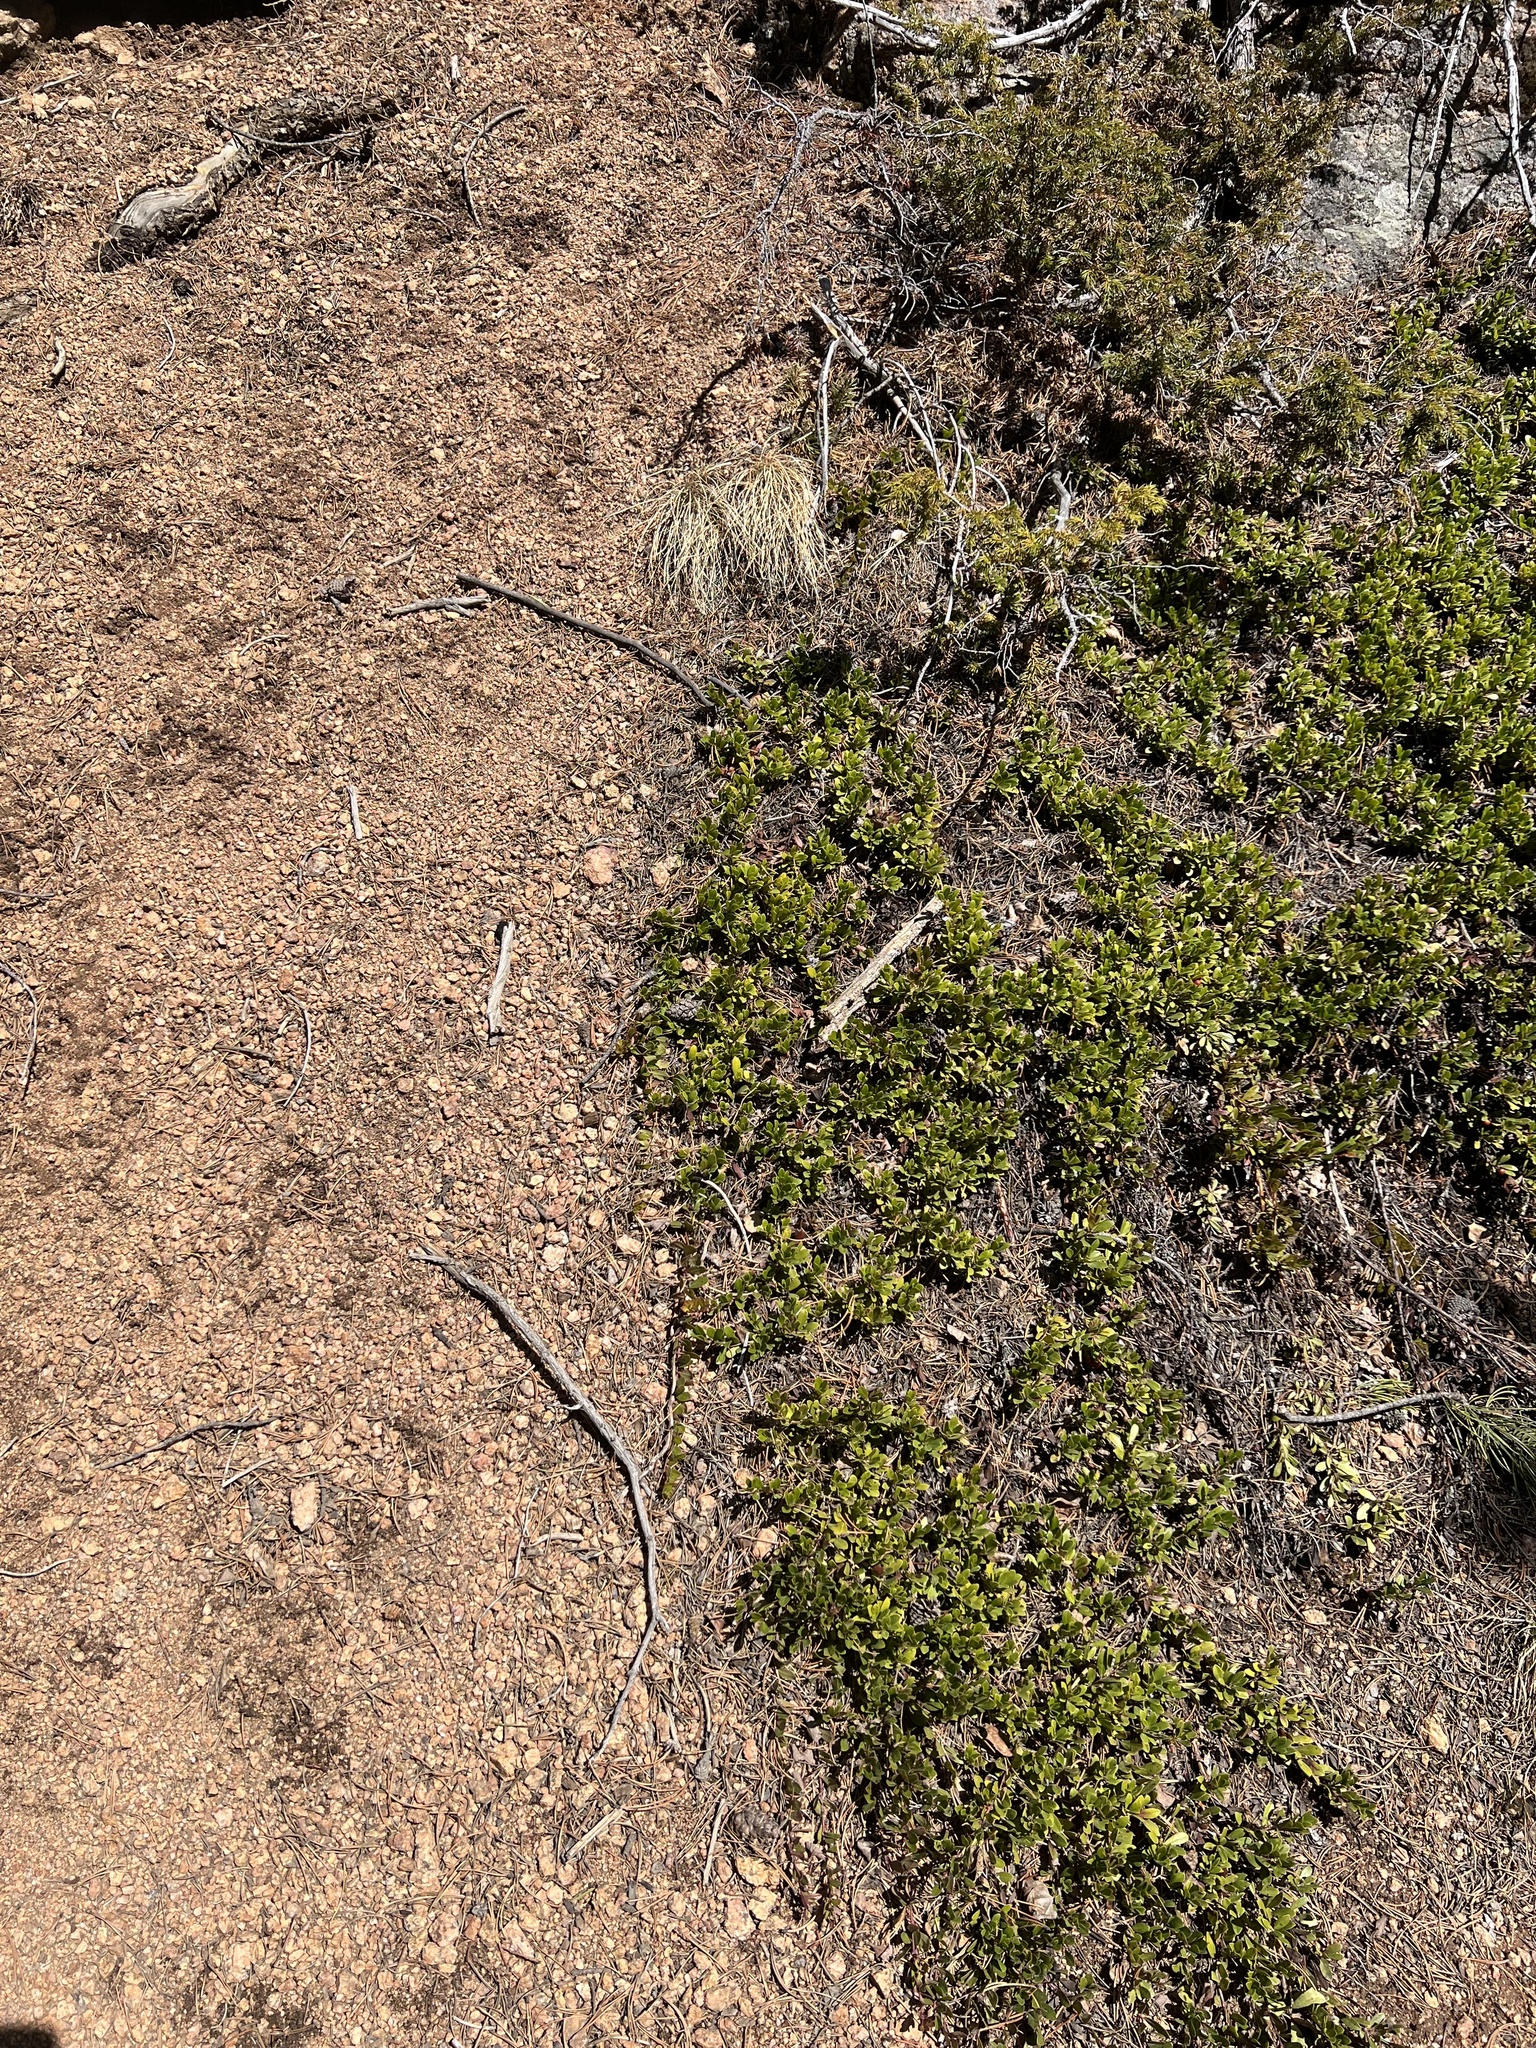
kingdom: Plantae
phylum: Tracheophyta
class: Magnoliopsida
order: Ericales
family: Ericaceae
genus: Arctostaphylos
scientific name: Arctostaphylos uva-ursi
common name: Bearberry
